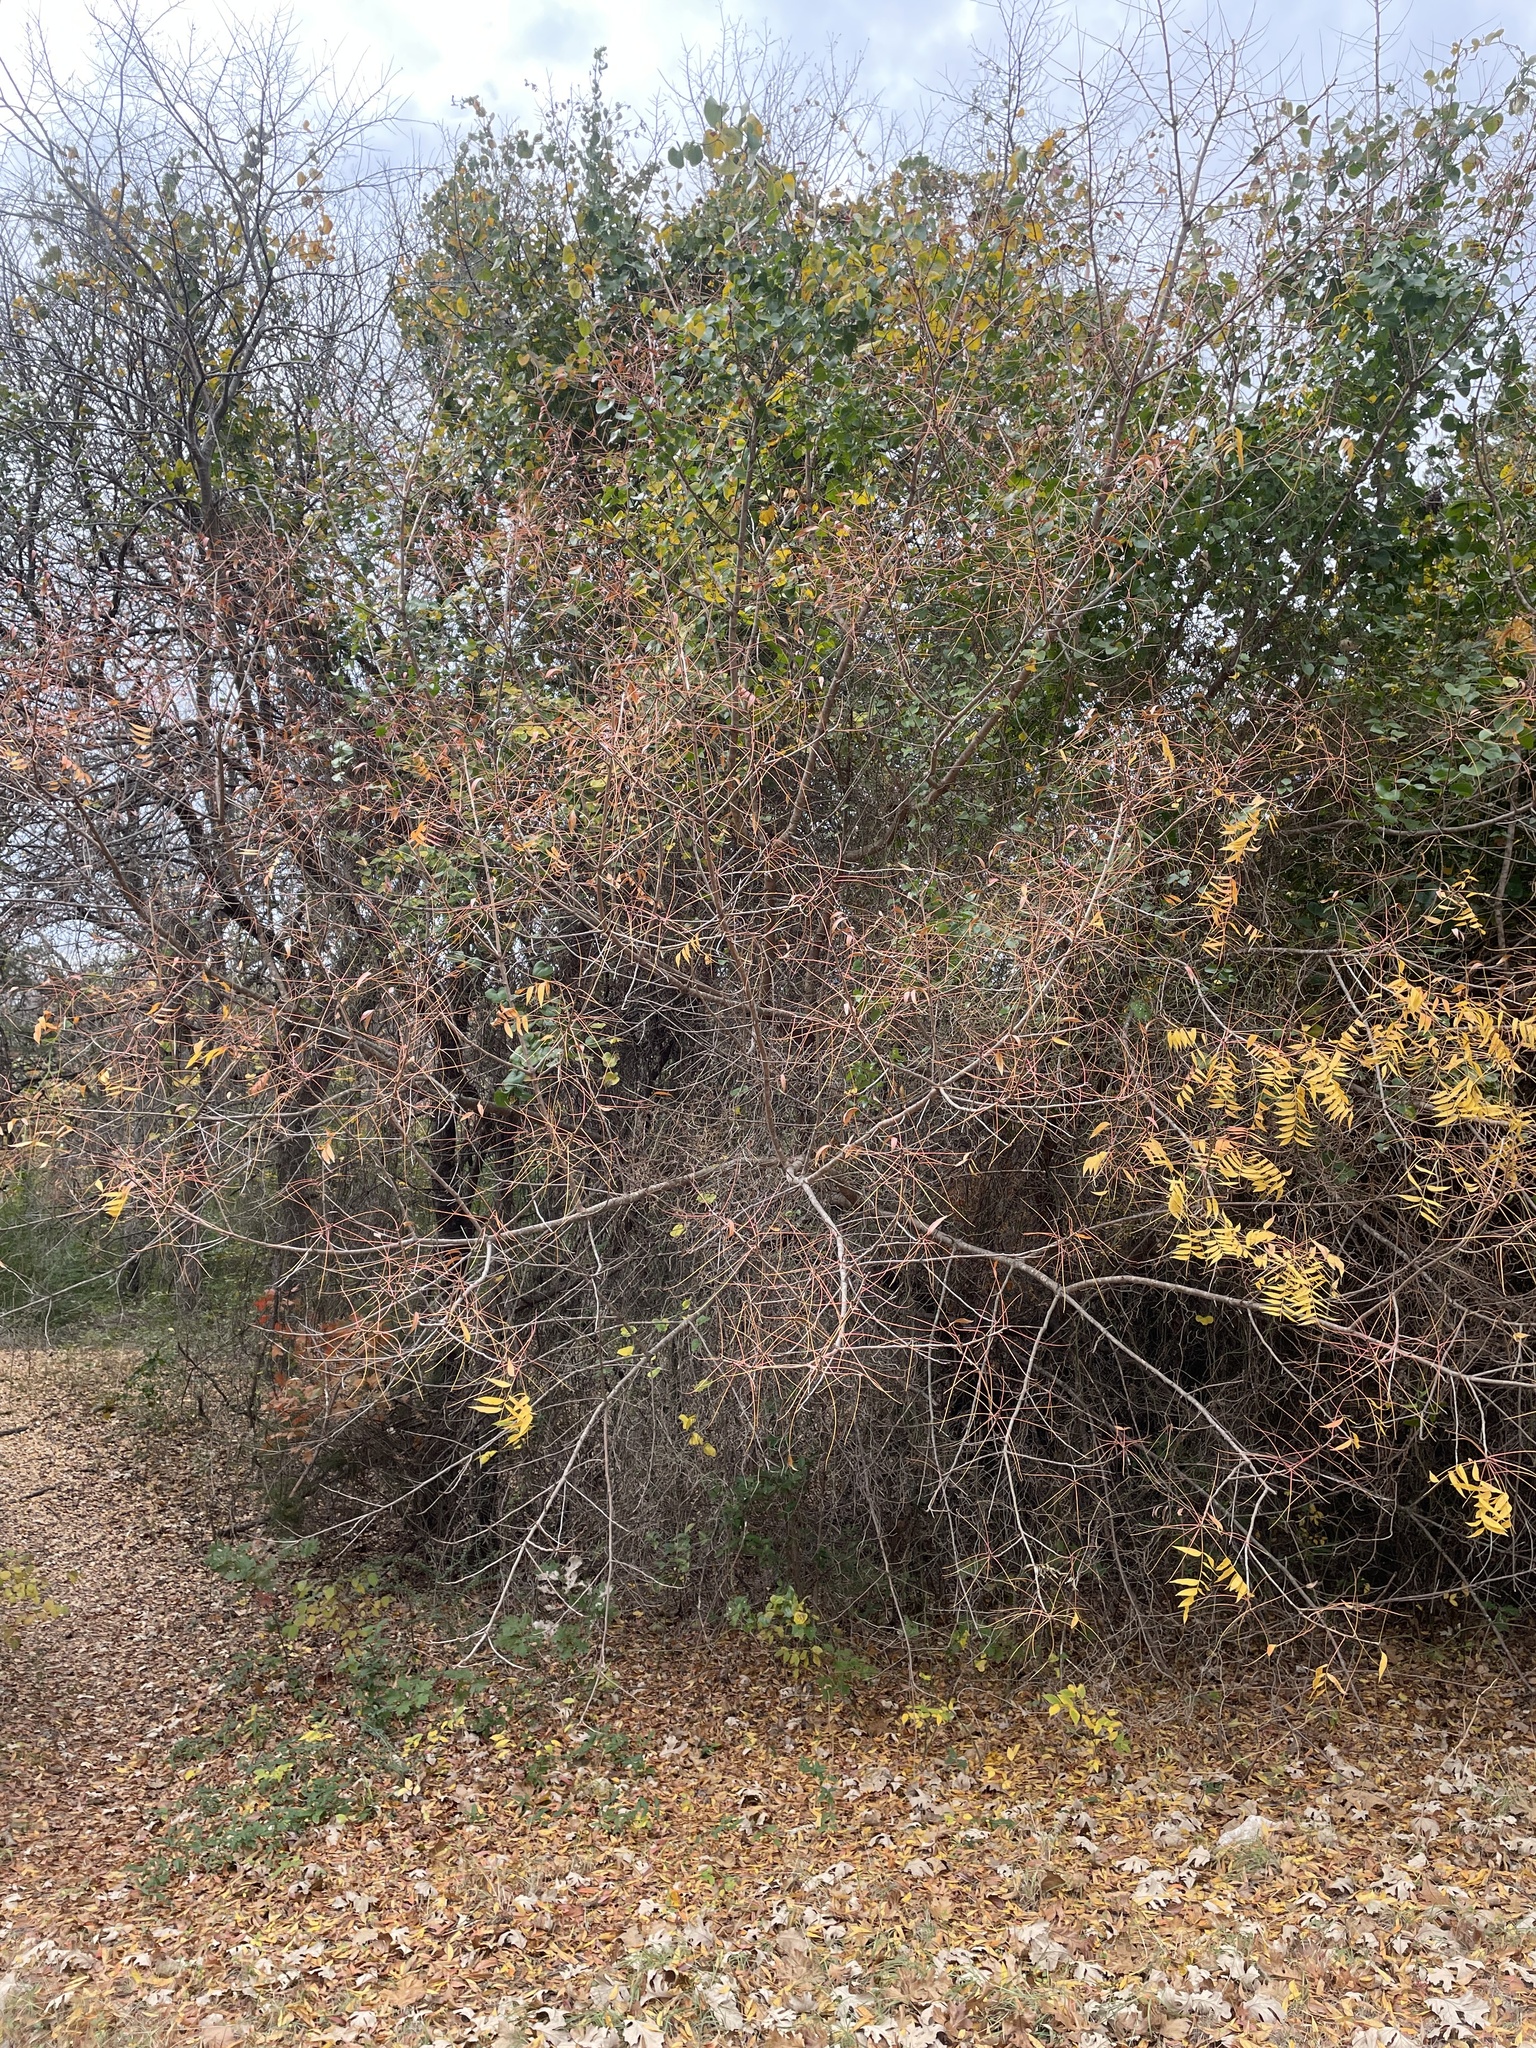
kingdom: Plantae
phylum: Tracheophyta
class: Magnoliopsida
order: Sapindales
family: Anacardiaceae
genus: Pistacia
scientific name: Pistacia chinensis
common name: Chinese pistache
